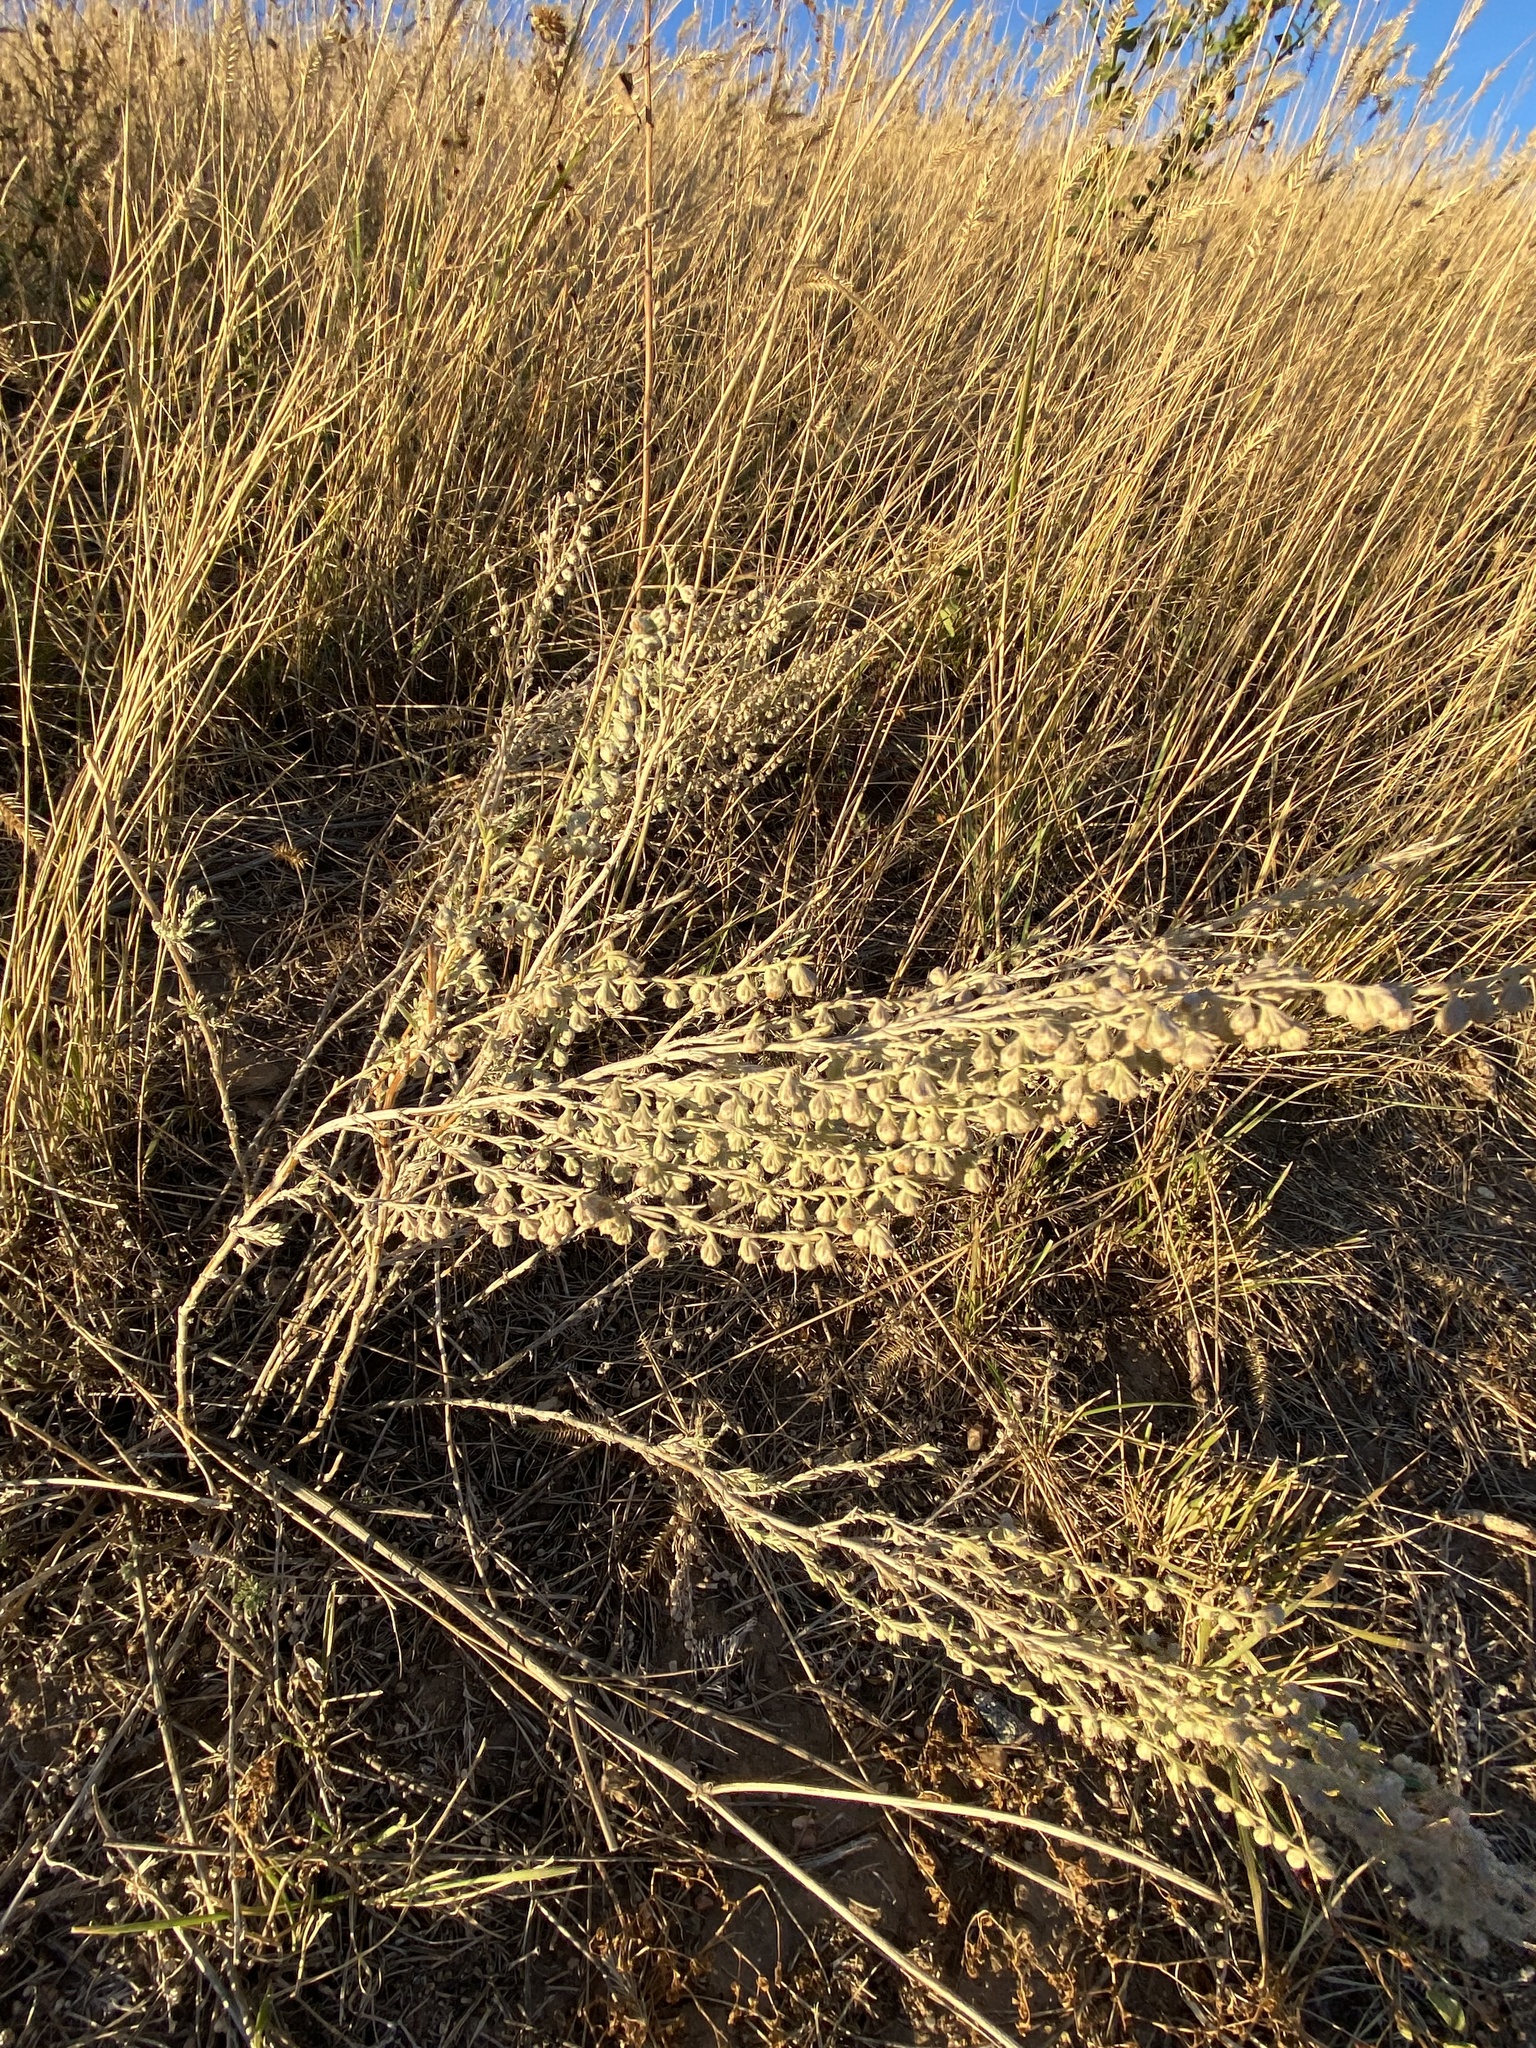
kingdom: Plantae
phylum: Tracheophyta
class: Magnoliopsida
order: Asterales
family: Asteraceae
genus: Artemisia
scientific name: Artemisia frigida
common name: Prairie sagewort
